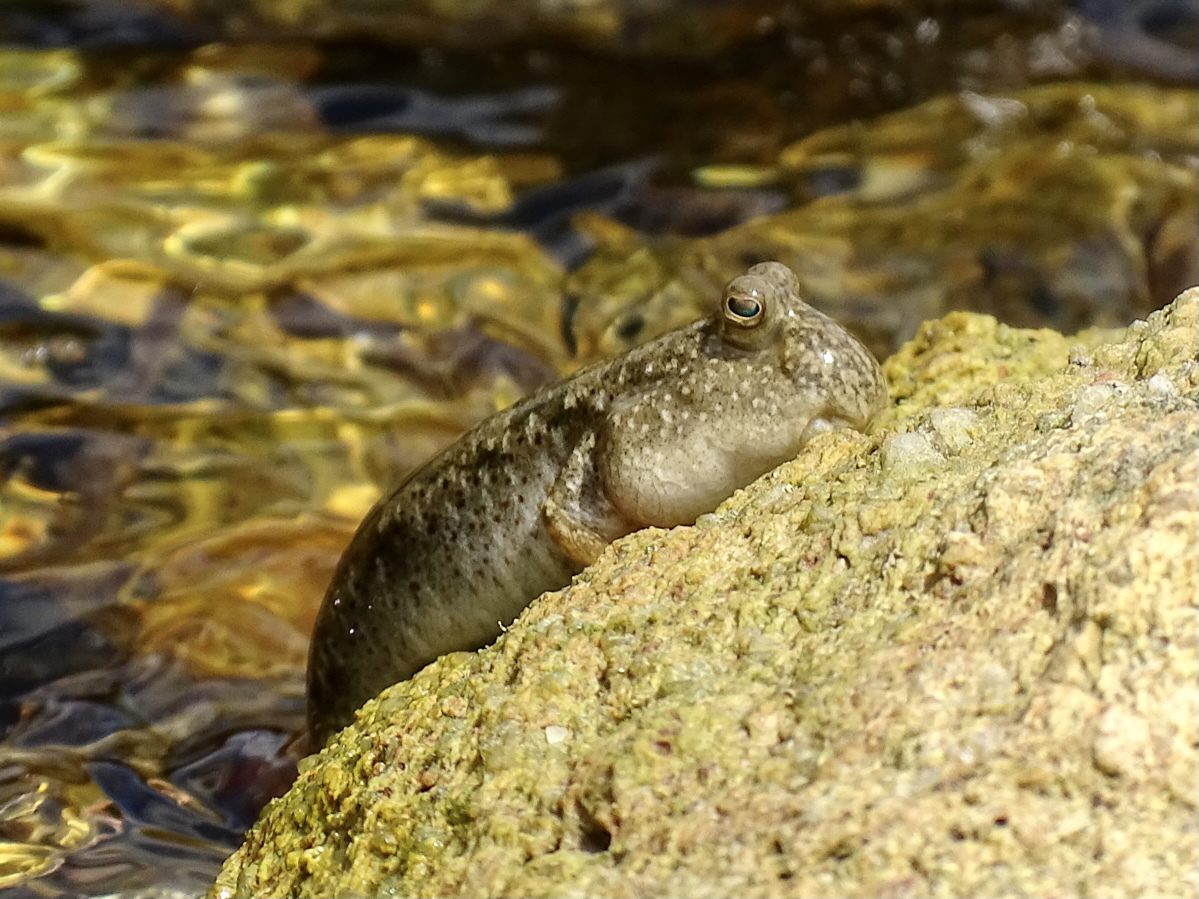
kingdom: Animalia
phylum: Chordata
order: Perciformes
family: Gobiidae
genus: Periophthalmus
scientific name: Periophthalmus modestus
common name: Black goby
